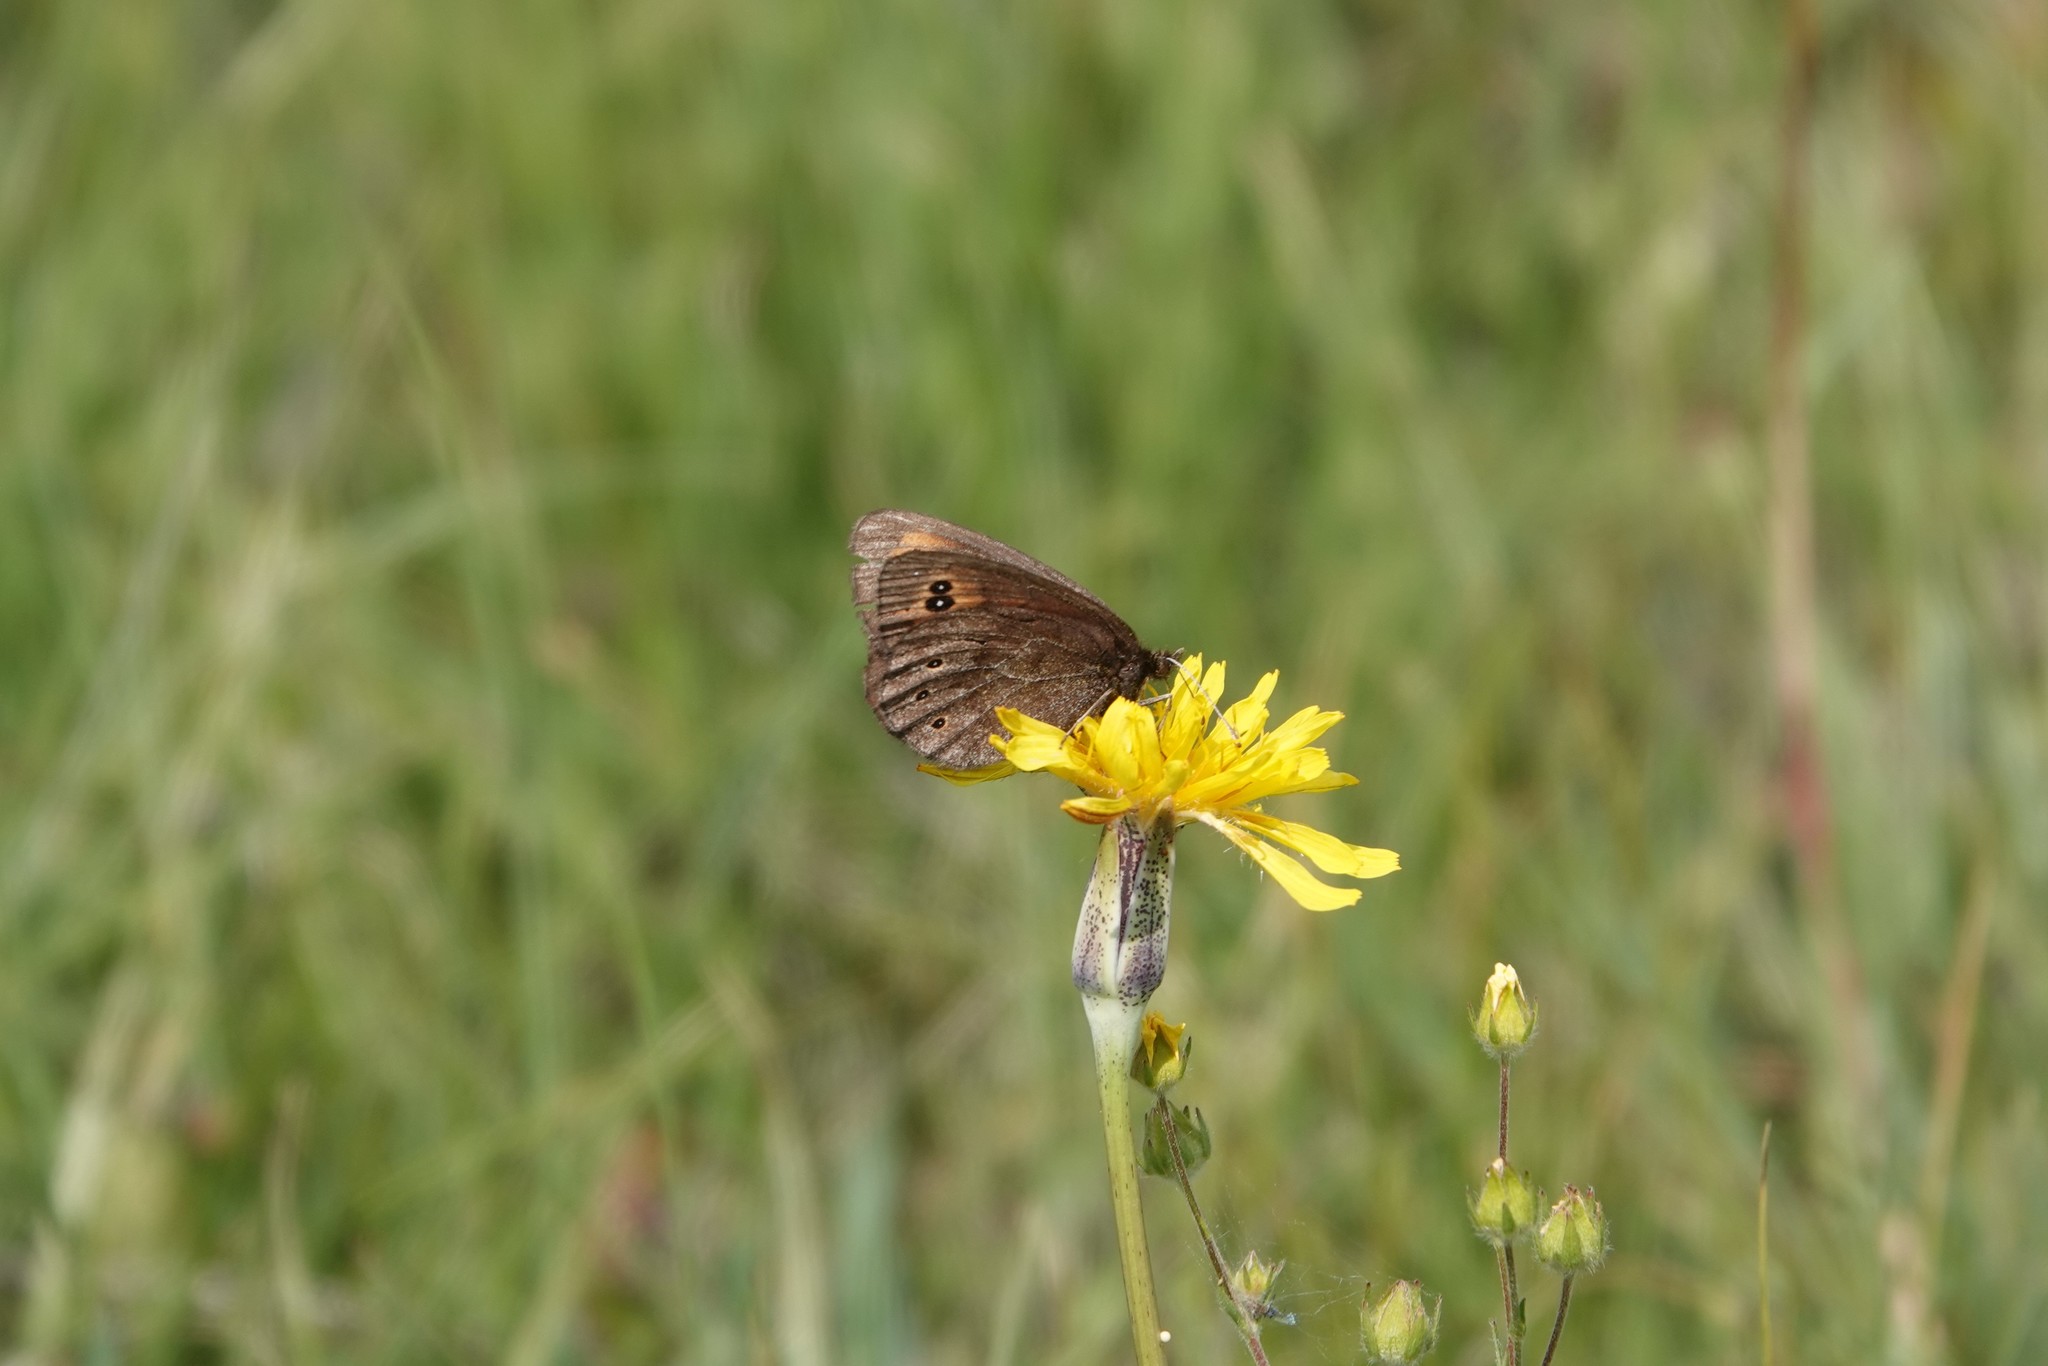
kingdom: Animalia
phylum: Arthropoda
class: Insecta
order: Lepidoptera
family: Nymphalidae
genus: Erebia
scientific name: Erebia epipsodea
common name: Common alpine
